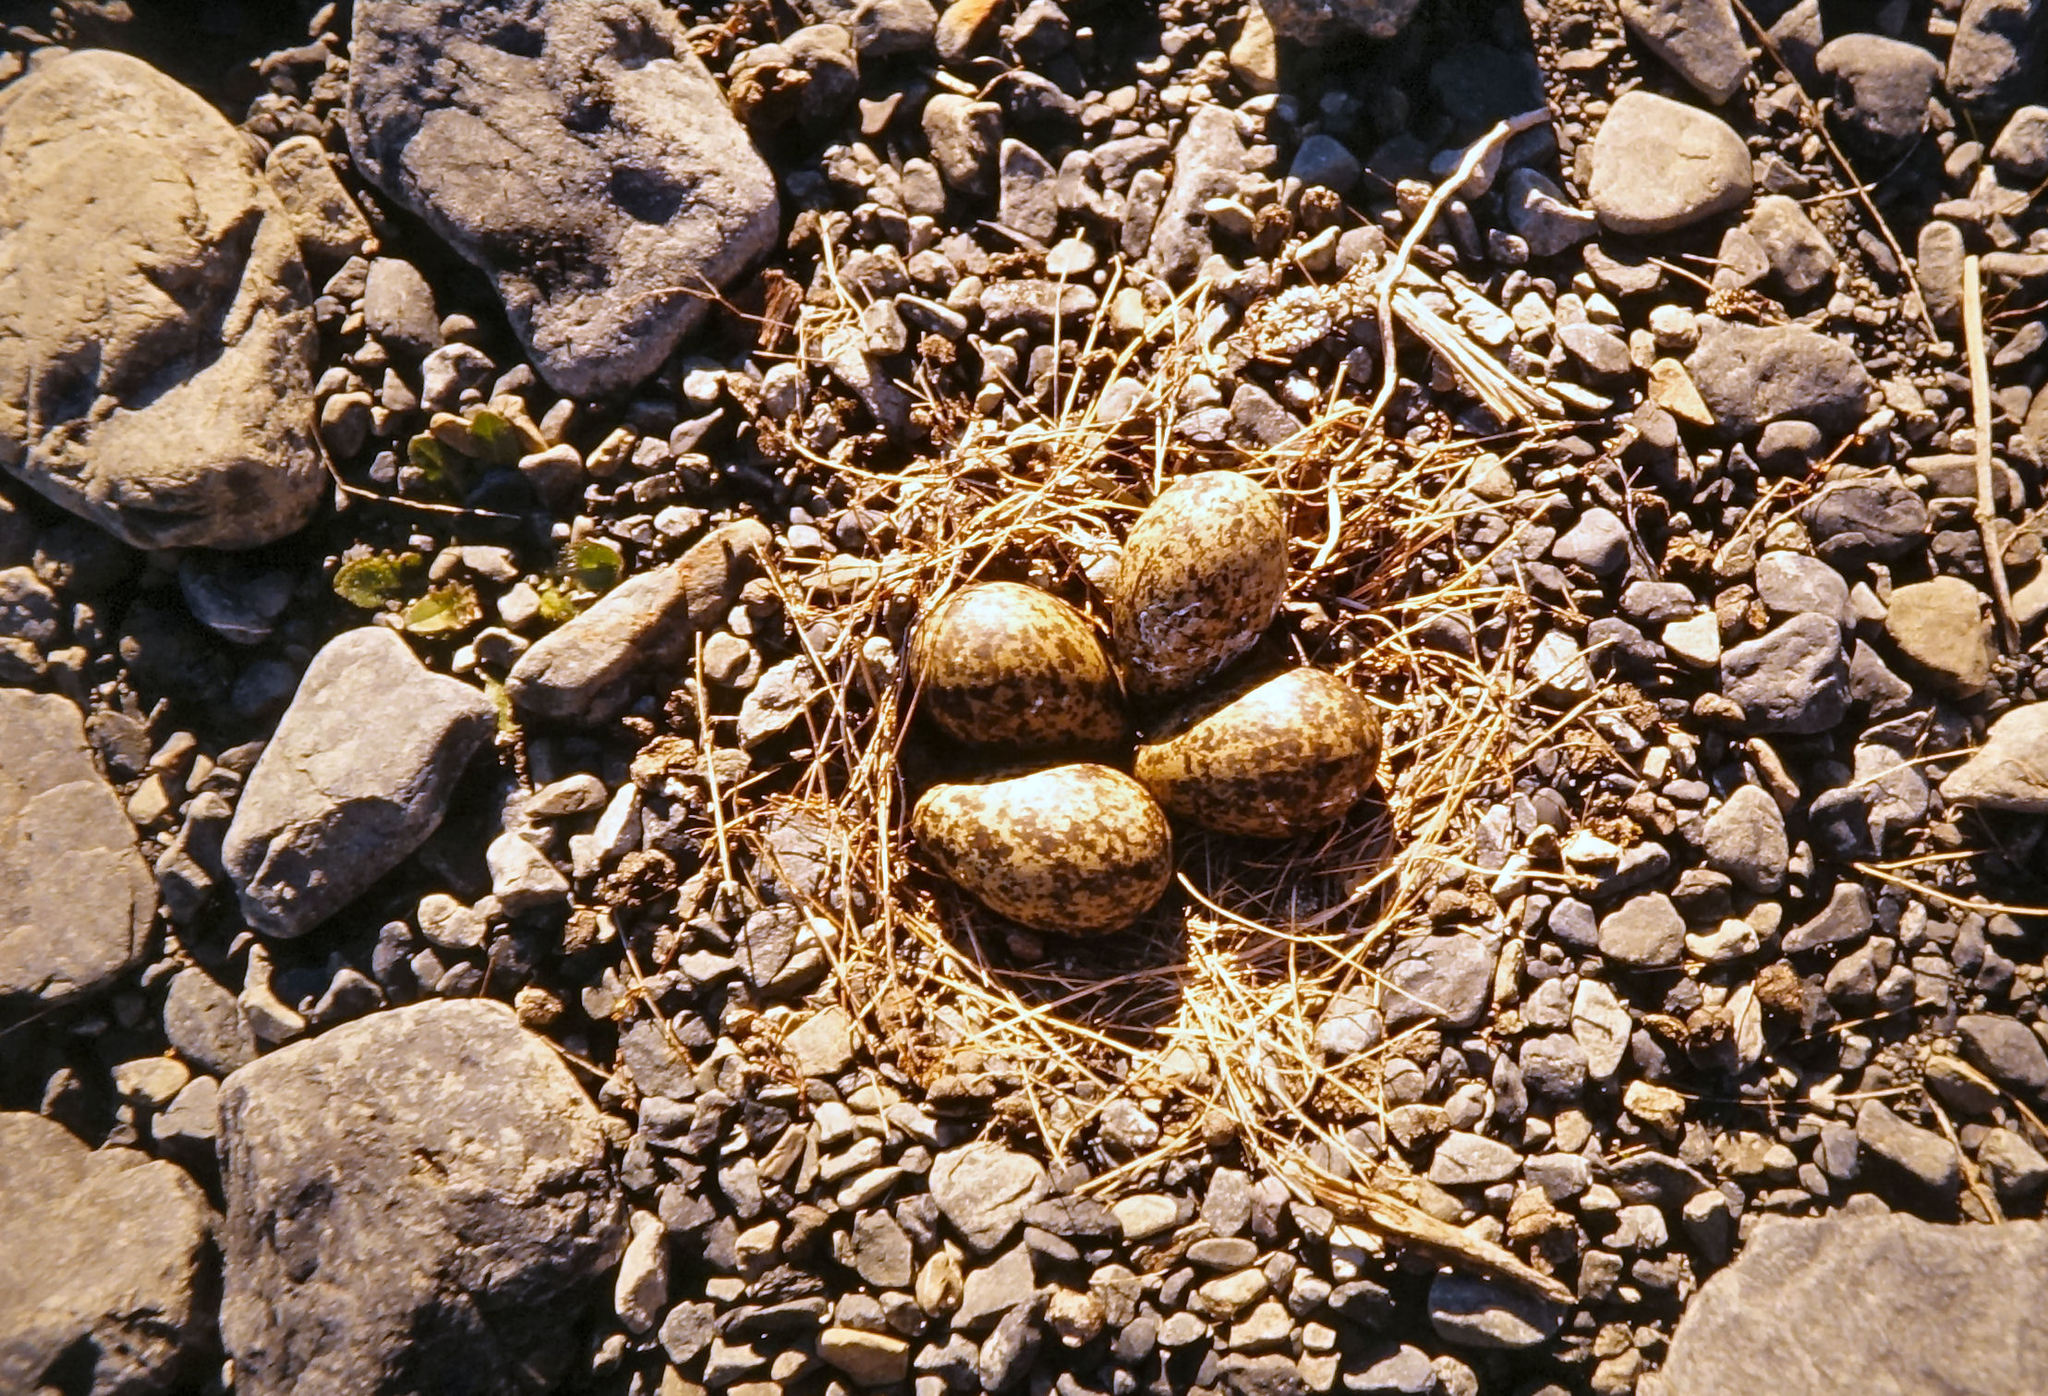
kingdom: Animalia
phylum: Chordata
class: Aves
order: Charadriiformes
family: Haematopodidae
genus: Haematopus
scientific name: Haematopus finschi
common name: South island oystercatcher
